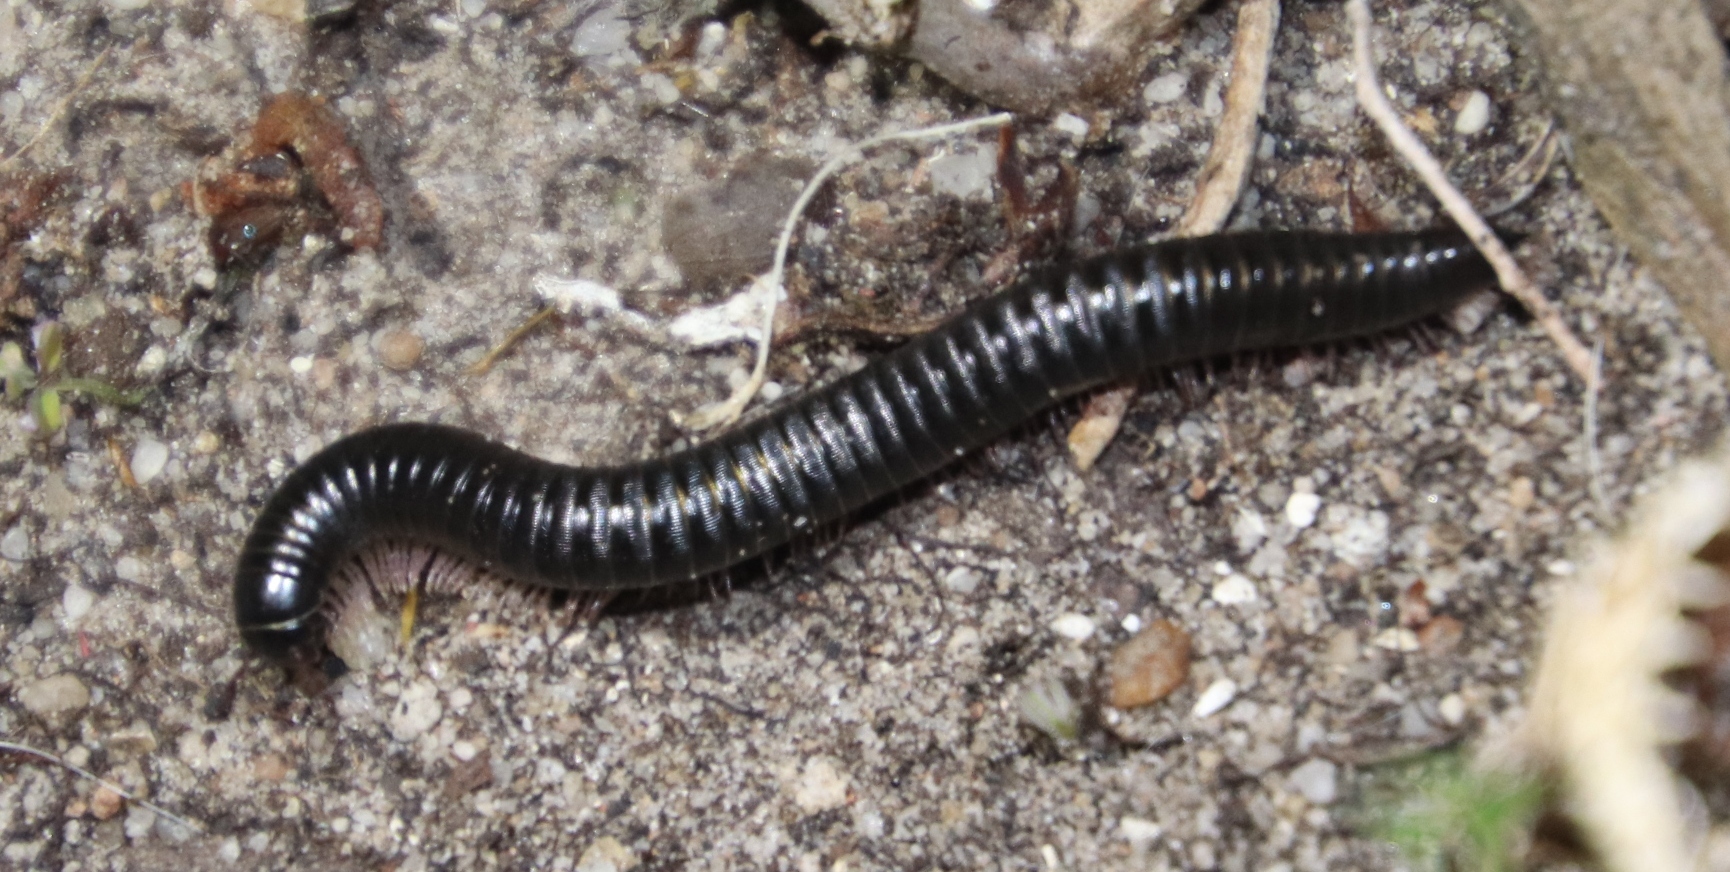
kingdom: Animalia
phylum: Arthropoda
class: Diplopoda
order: Julida
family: Julidae
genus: Ommatoiulus
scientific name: Ommatoiulus moreleti
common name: Portuguese millipede
